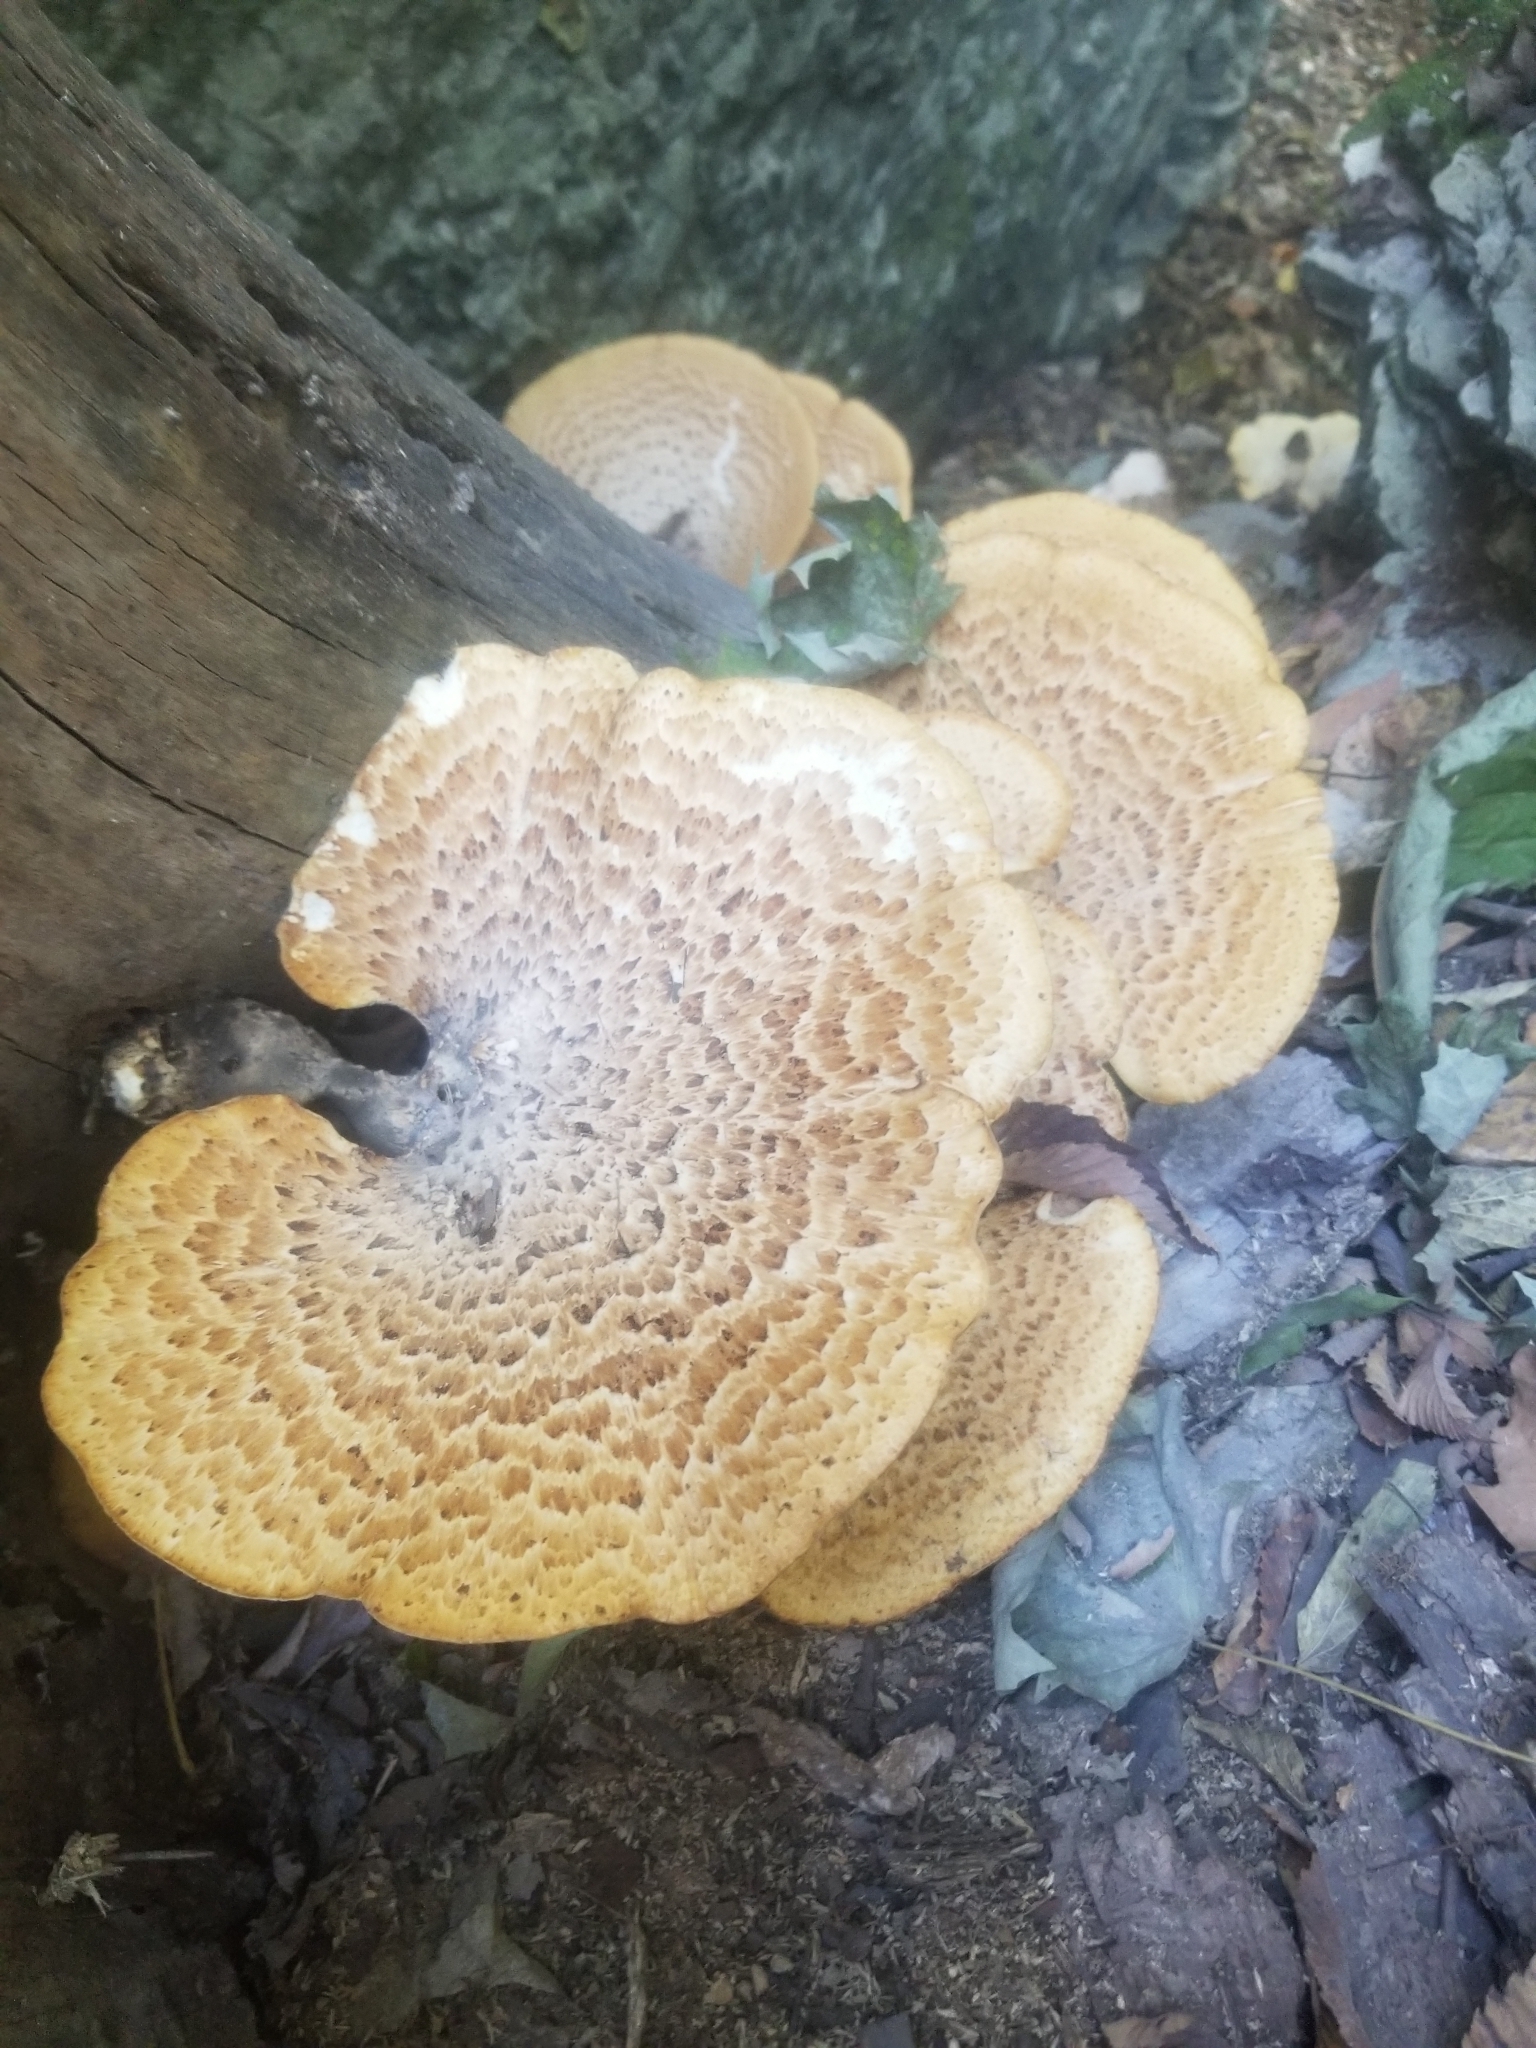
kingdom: Fungi
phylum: Basidiomycota
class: Agaricomycetes
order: Polyporales
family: Polyporaceae
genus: Cerioporus
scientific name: Cerioporus squamosus
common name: Dryad's saddle
